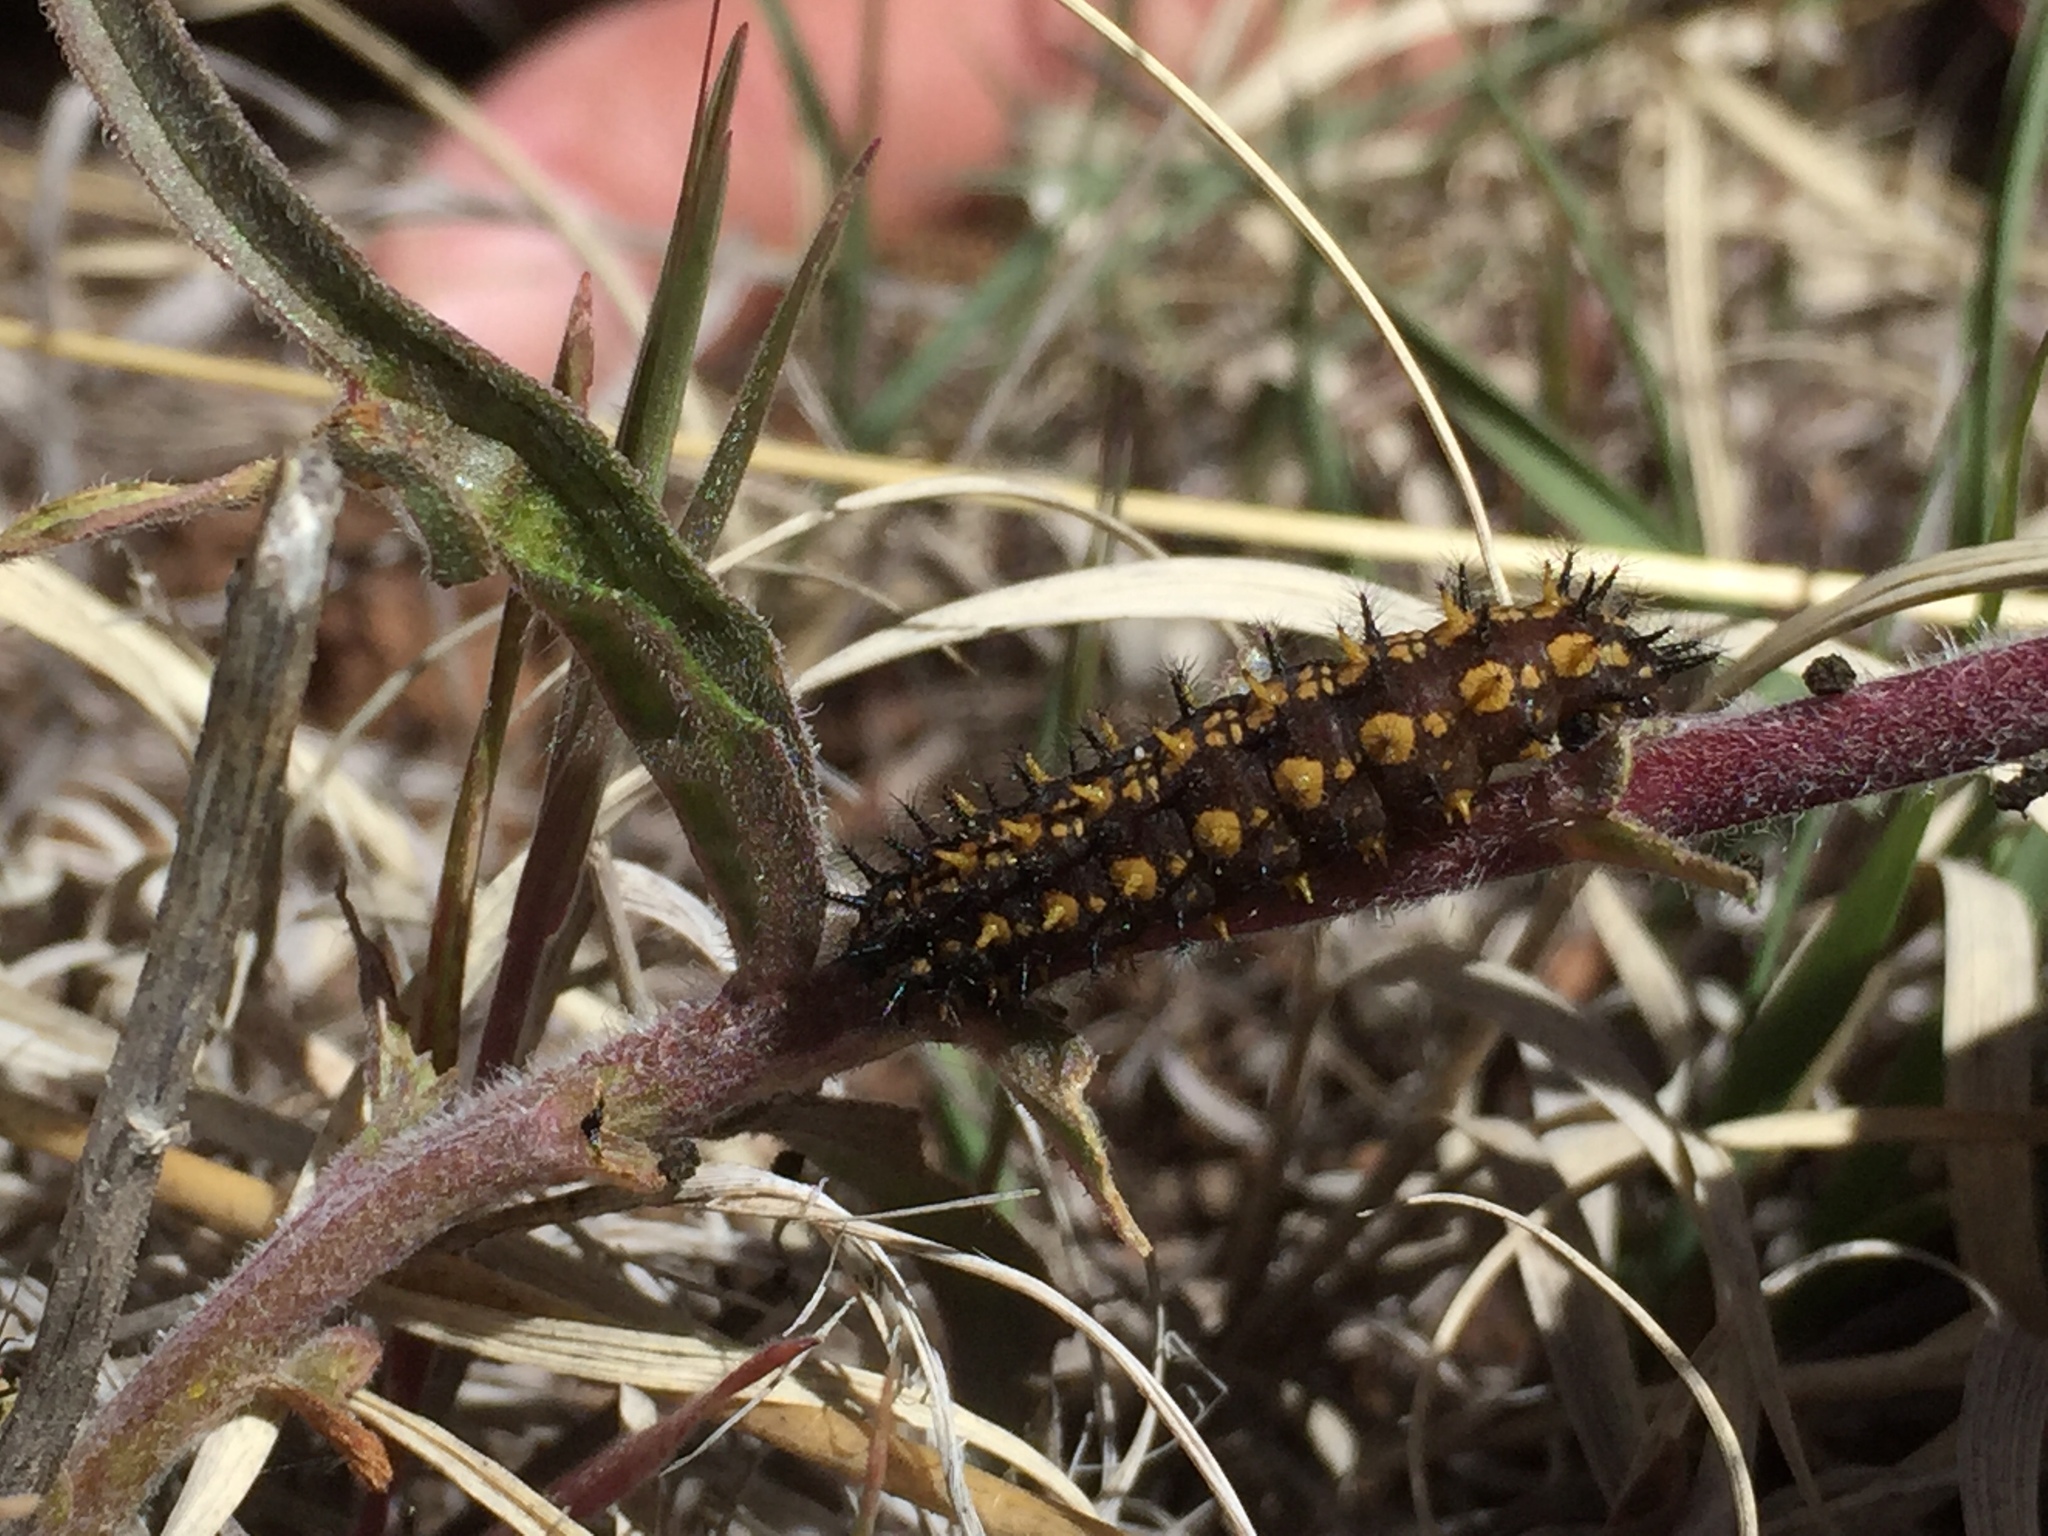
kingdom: Animalia
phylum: Arthropoda
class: Insecta
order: Lepidoptera
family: Nymphalidae
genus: Occidryas
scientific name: Occidryas anicia
